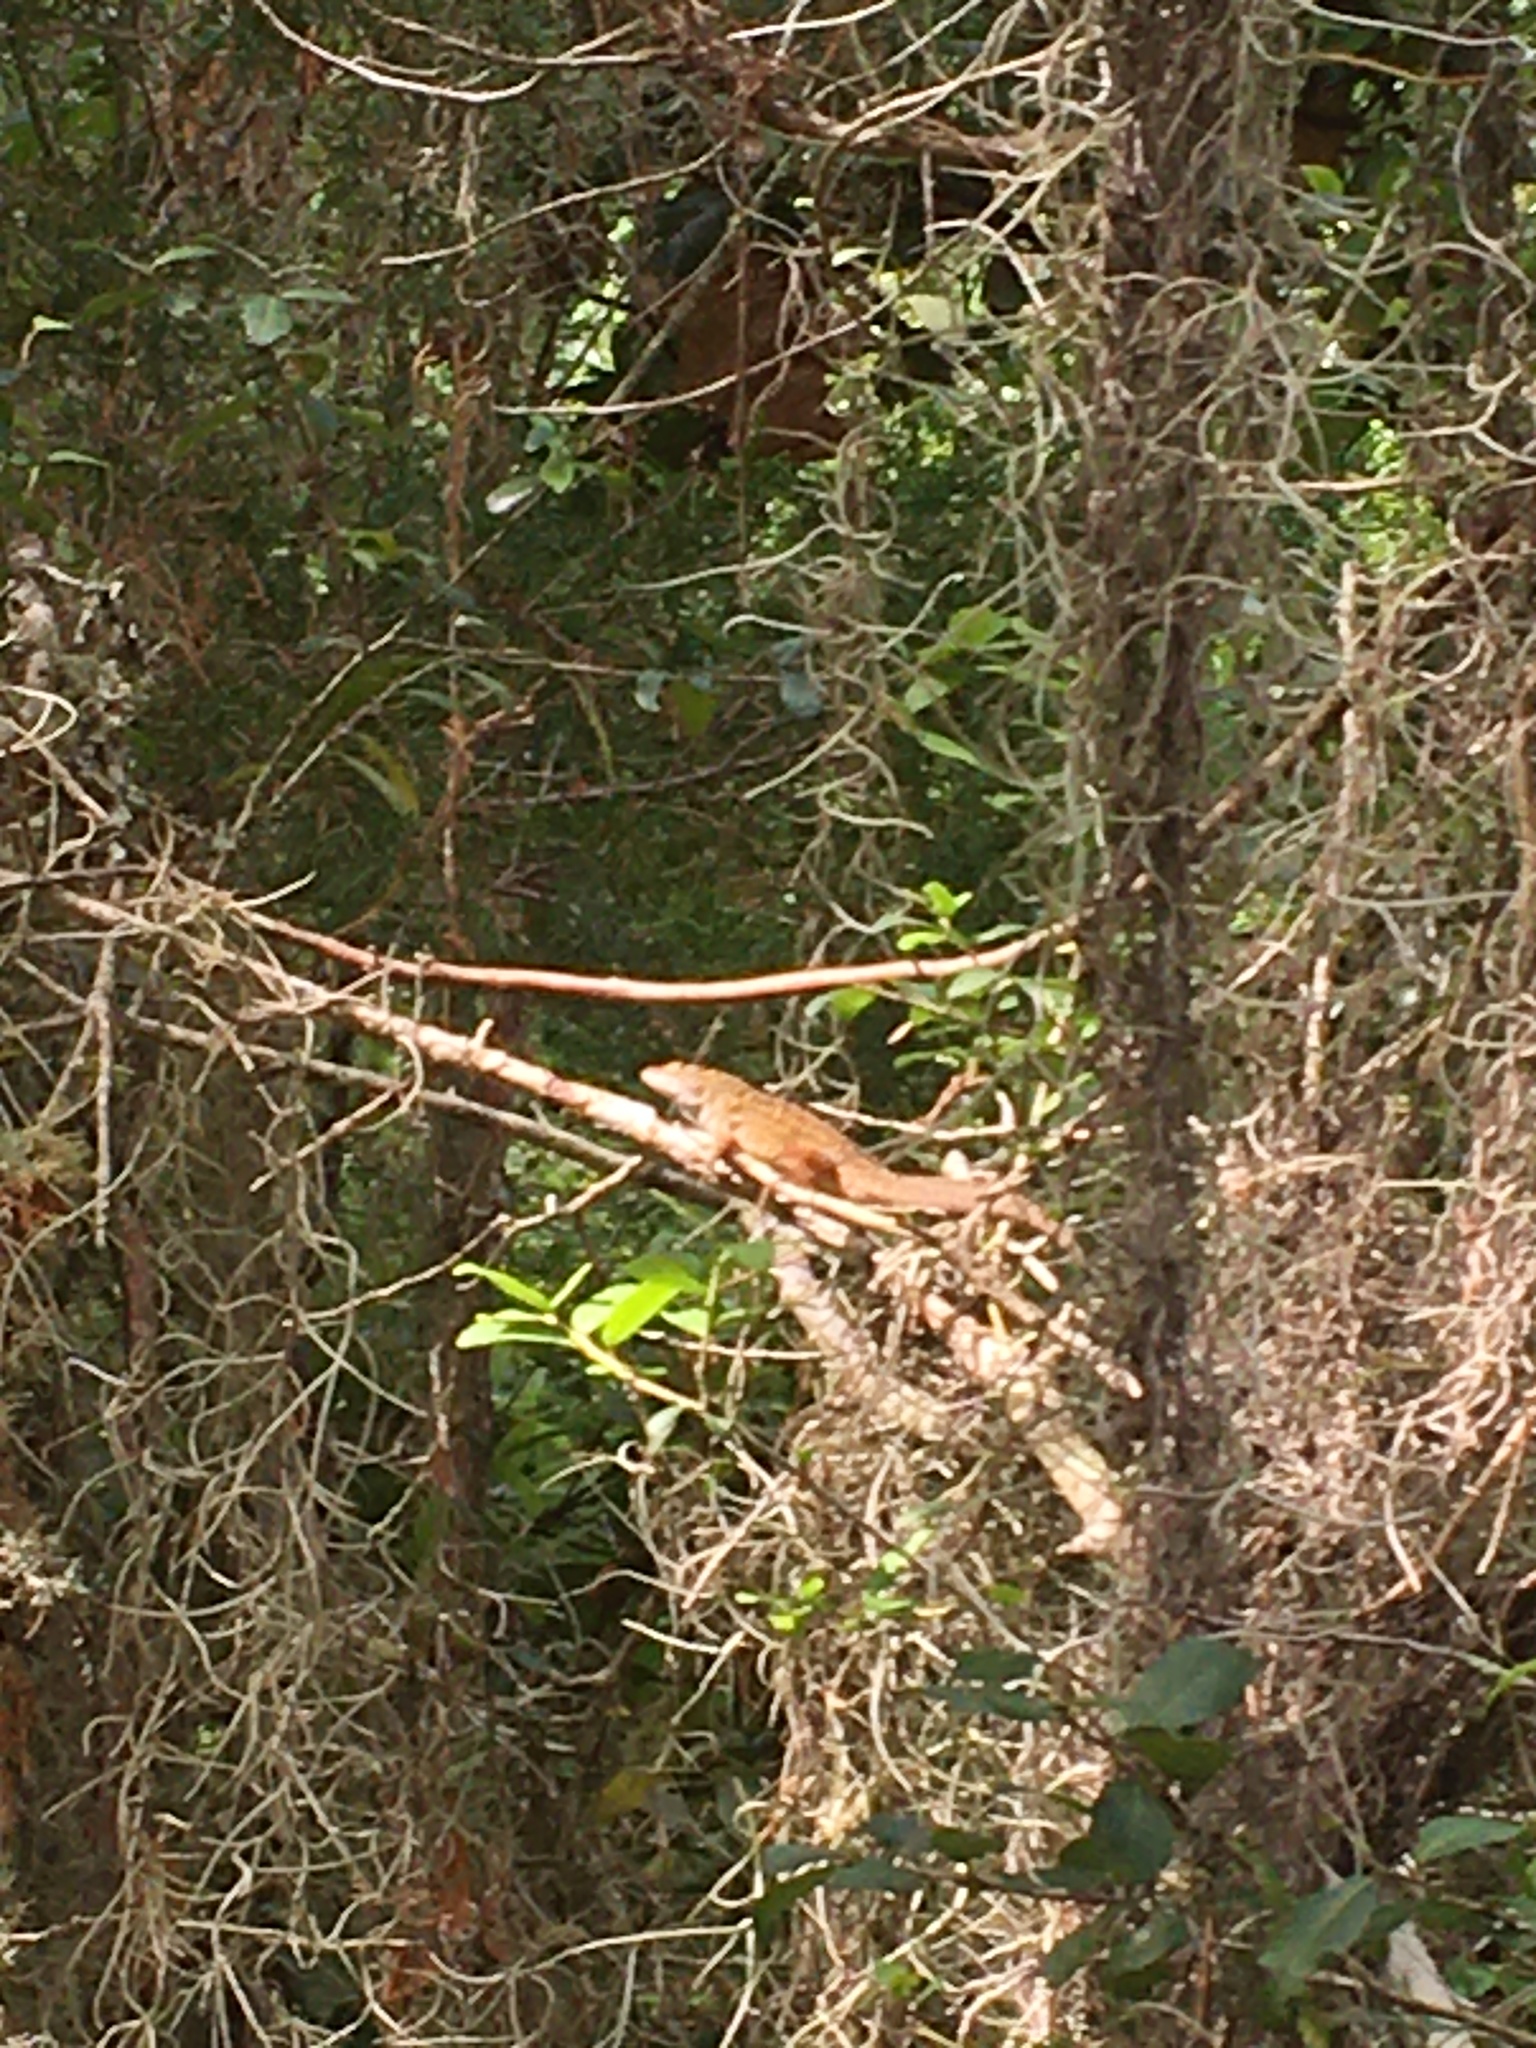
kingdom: Animalia
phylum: Chordata
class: Squamata
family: Dactyloidae
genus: Anolis
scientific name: Anolis sagrei
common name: Brown anole
